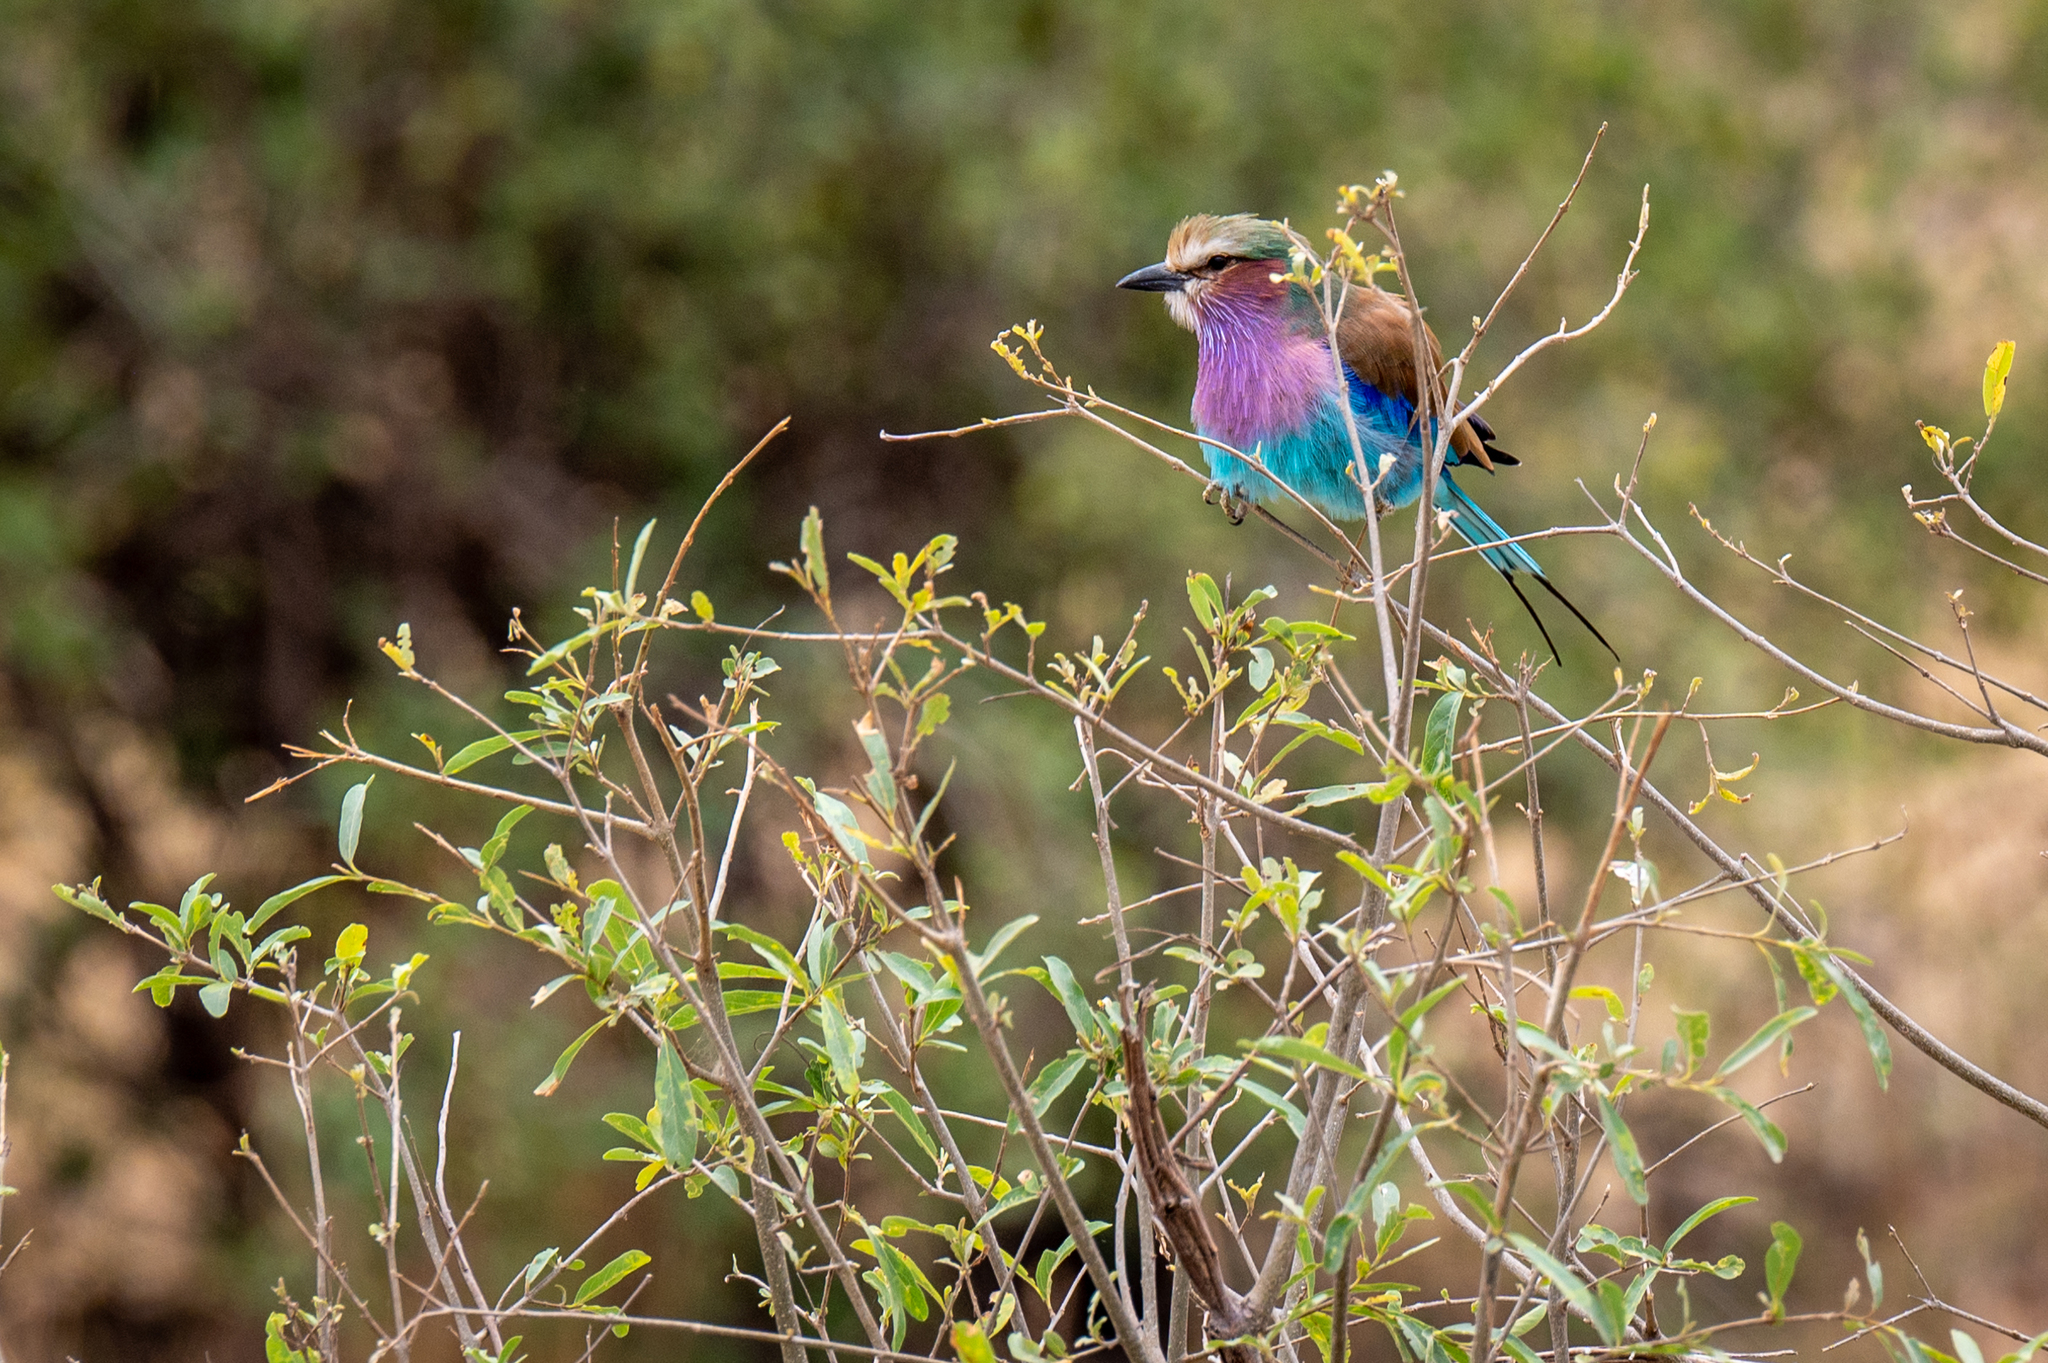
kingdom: Animalia
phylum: Chordata
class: Aves
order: Coraciiformes
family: Coraciidae
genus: Coracias
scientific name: Coracias caudatus
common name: Lilac-breasted roller
